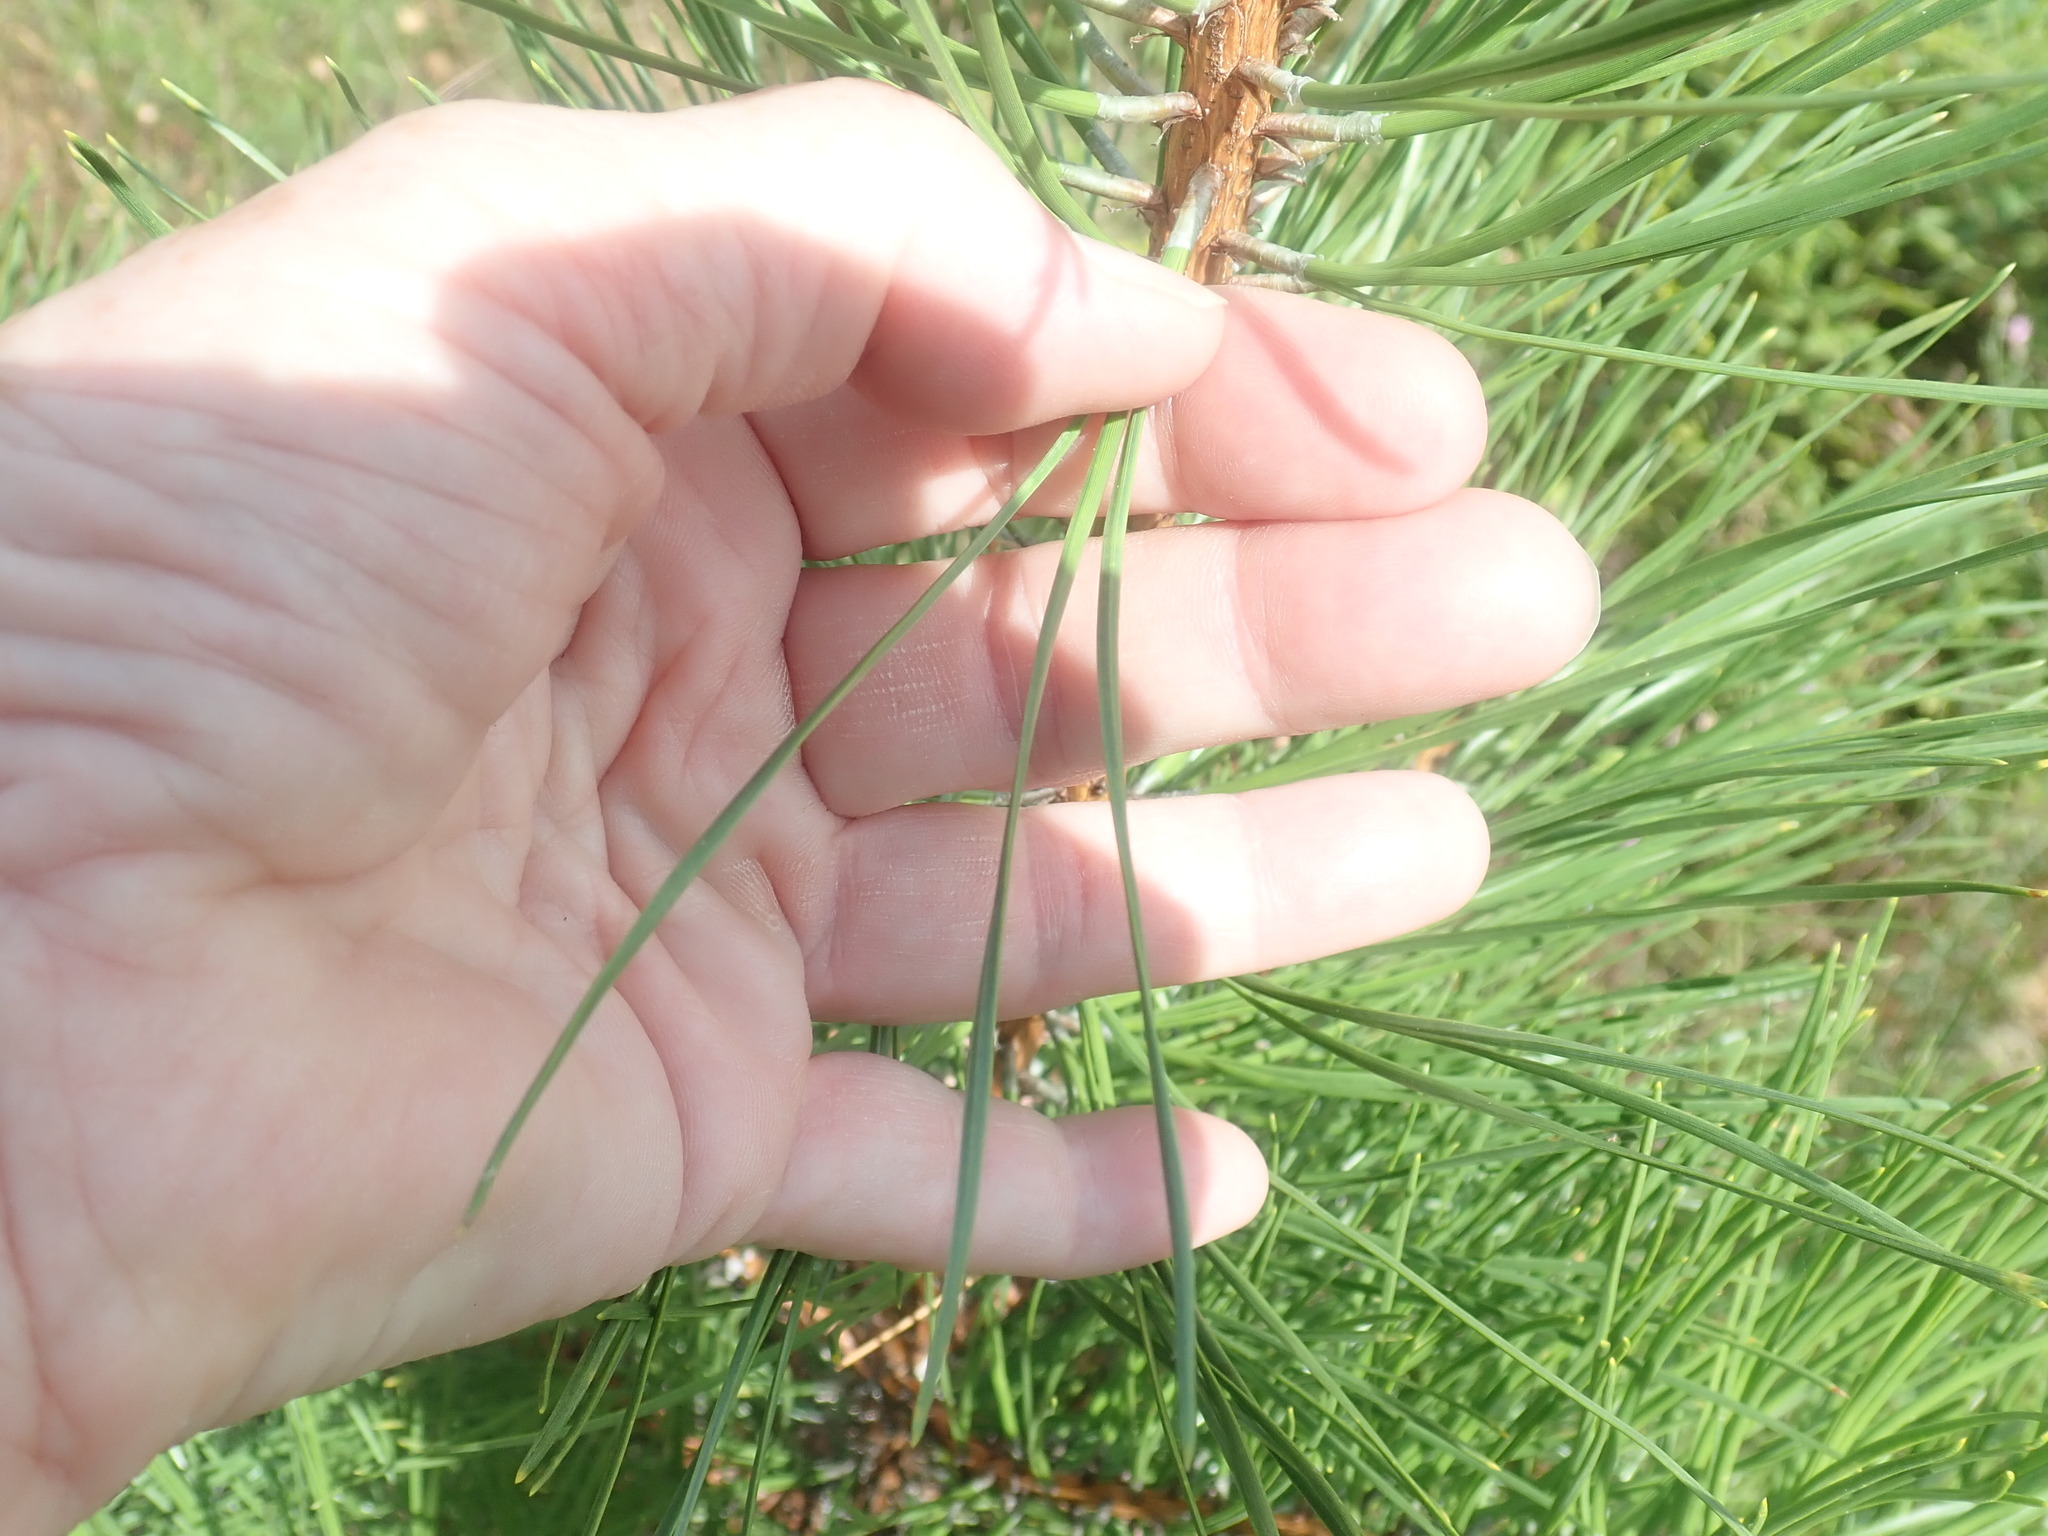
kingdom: Plantae
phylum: Tracheophyta
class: Pinopsida
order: Pinales
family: Pinaceae
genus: Pinus
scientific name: Pinus rigida
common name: Pitch pine
